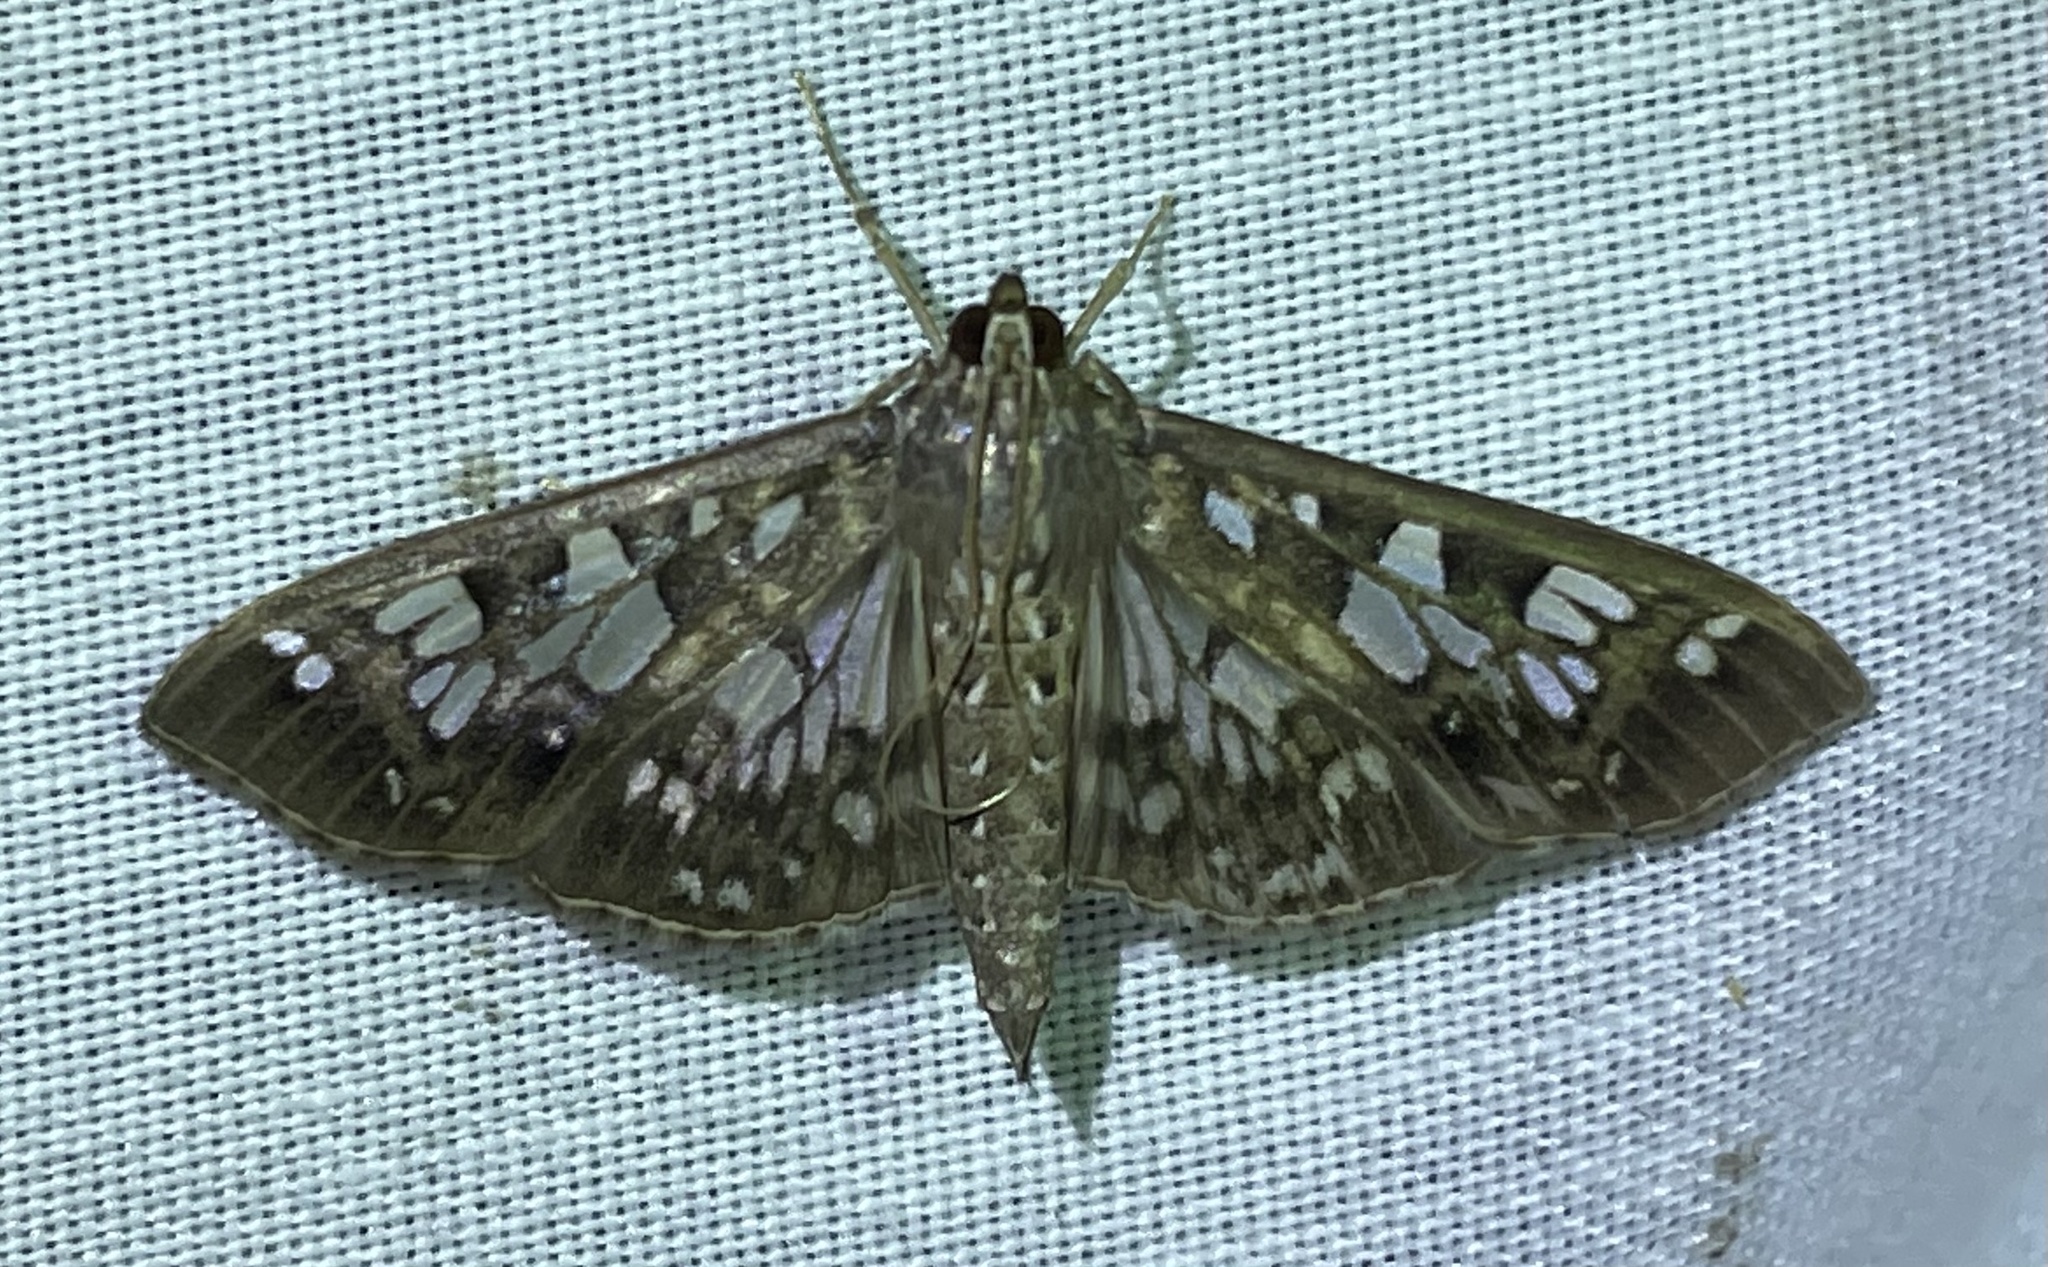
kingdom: Animalia
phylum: Arthropoda
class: Insecta
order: Lepidoptera
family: Crambidae
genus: Pygospila
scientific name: Pygospila tyres
